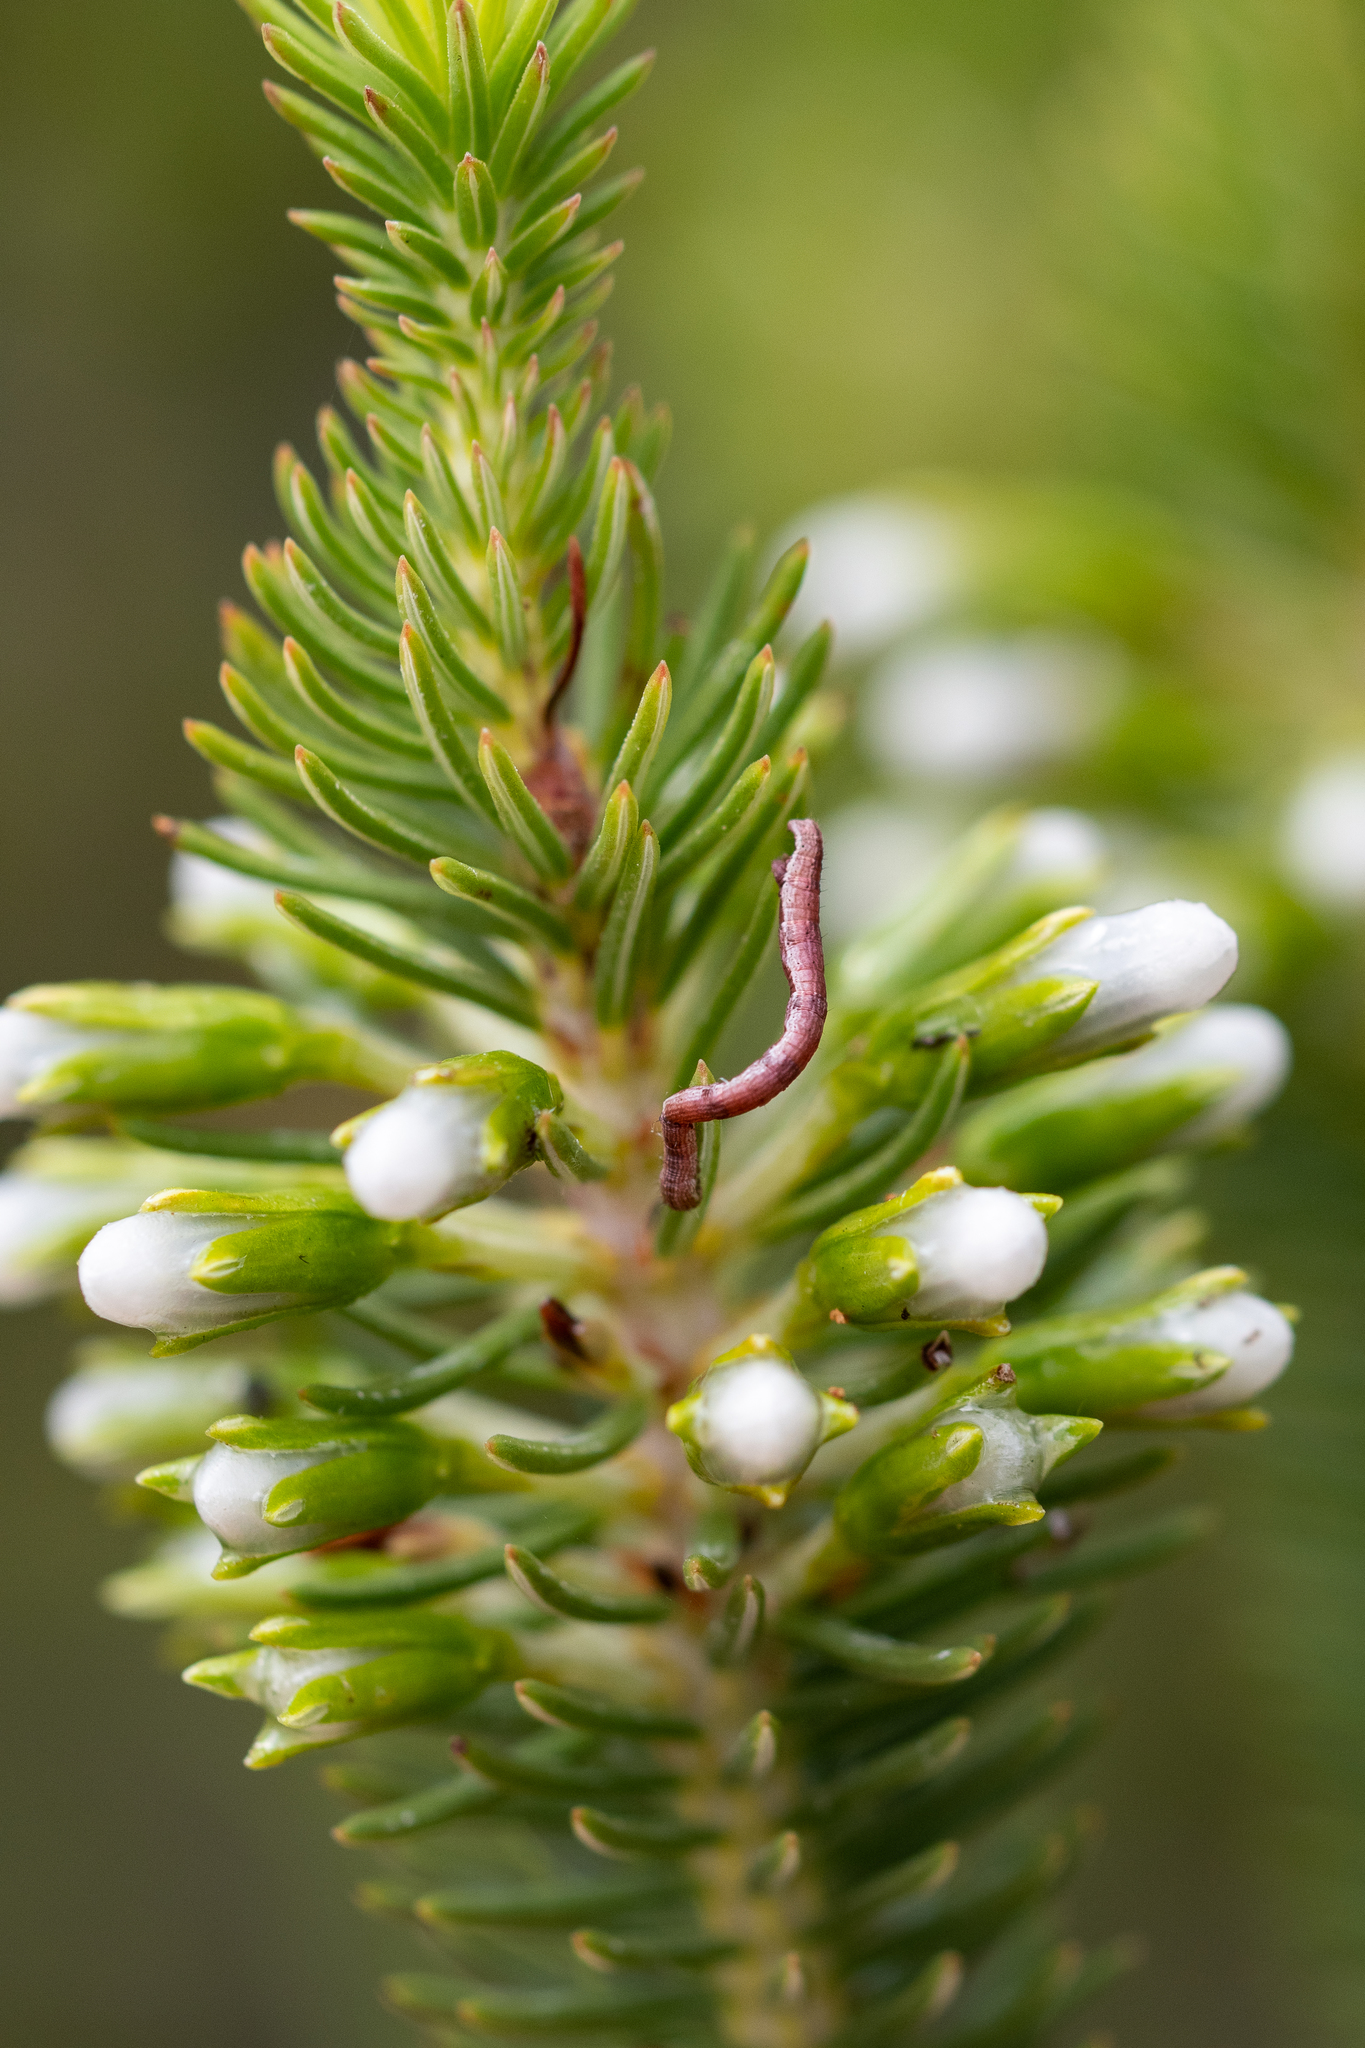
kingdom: Plantae
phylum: Tracheophyta
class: Magnoliopsida
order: Ericales
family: Ericaceae
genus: Erica
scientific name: Erica thomae
